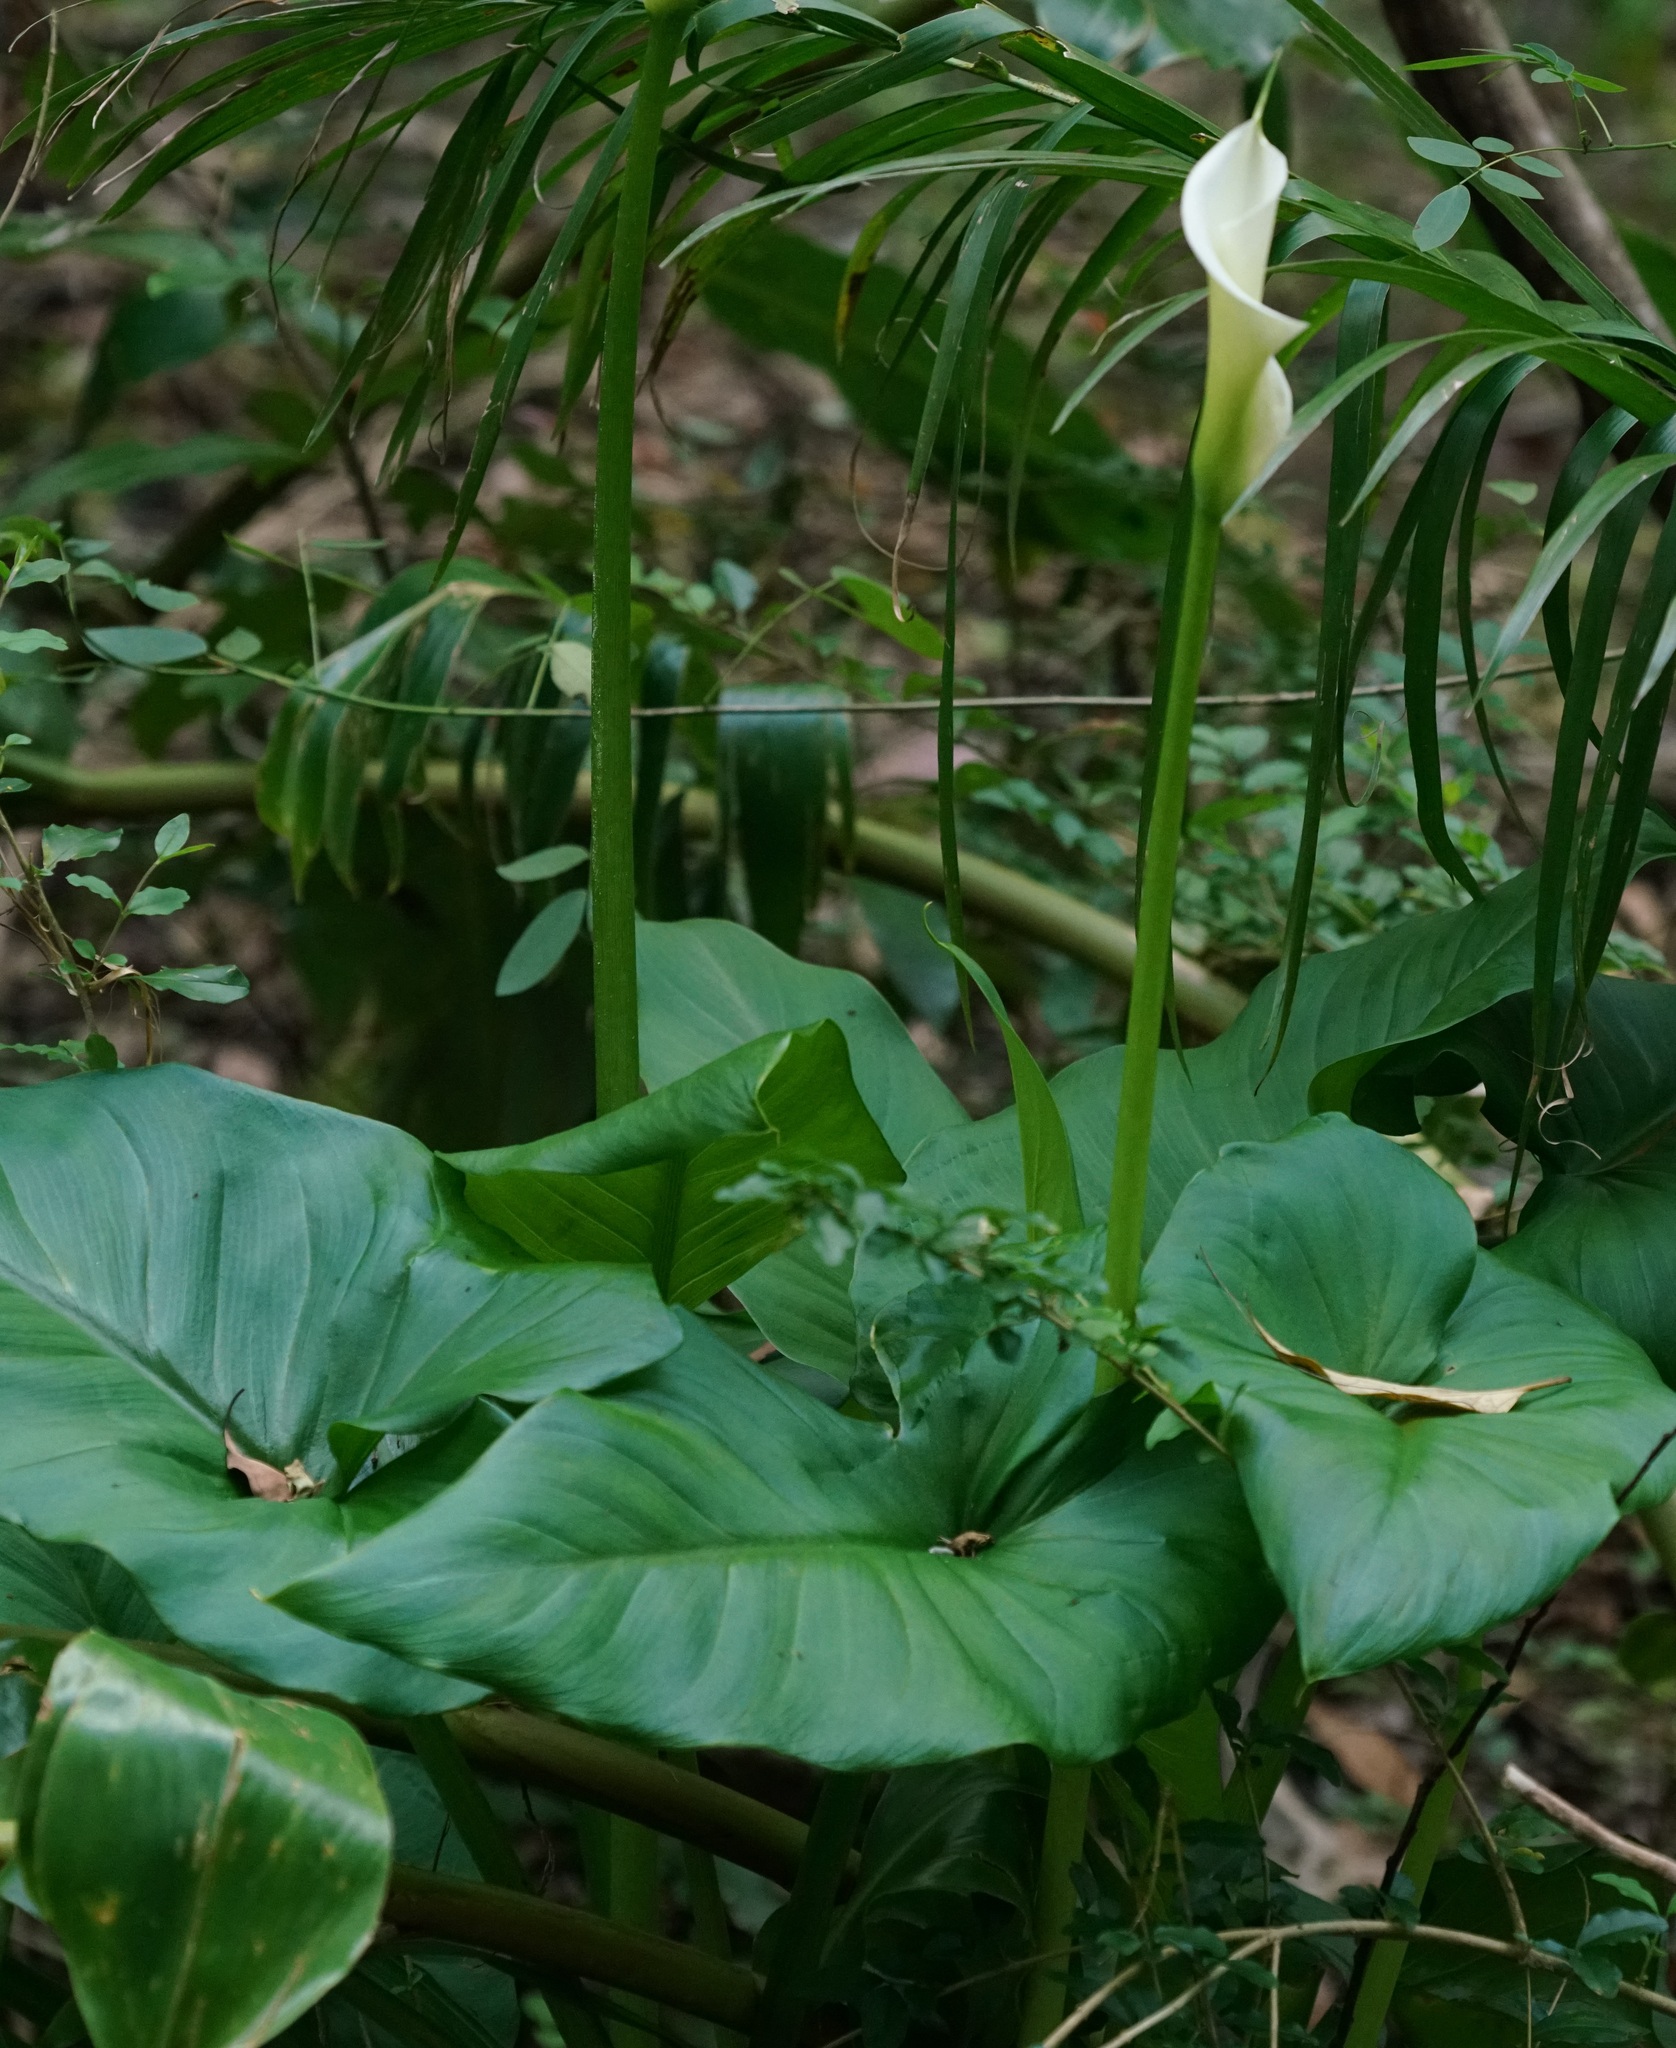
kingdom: Plantae
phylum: Tracheophyta
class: Liliopsida
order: Alismatales
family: Araceae
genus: Zantedeschia
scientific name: Zantedeschia aethiopica
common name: Altar-lily
